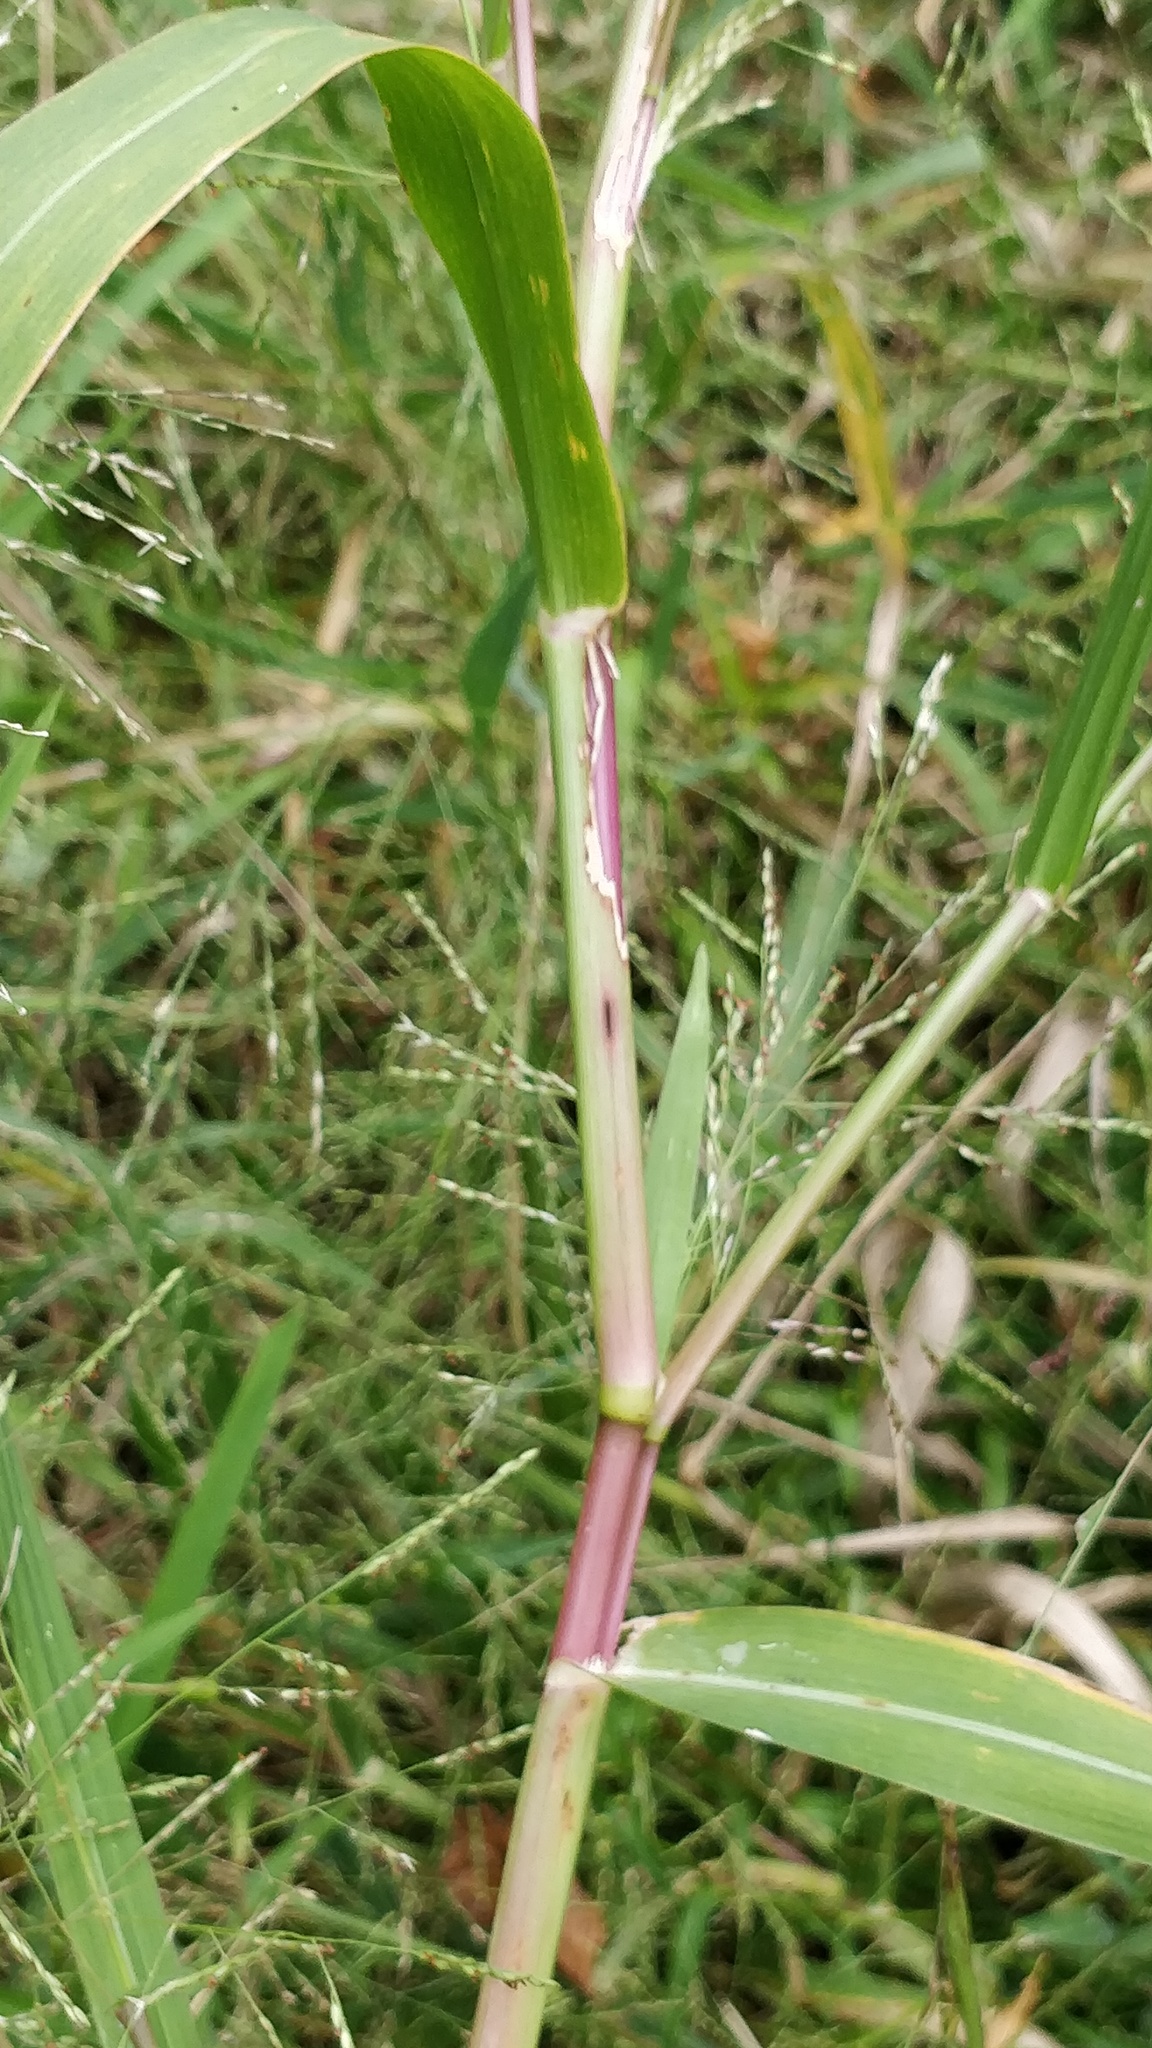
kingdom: Plantae
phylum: Tracheophyta
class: Liliopsida
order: Poales
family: Poaceae
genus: Panicum
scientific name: Panicum dichotomiflorum
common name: Autumn millet
